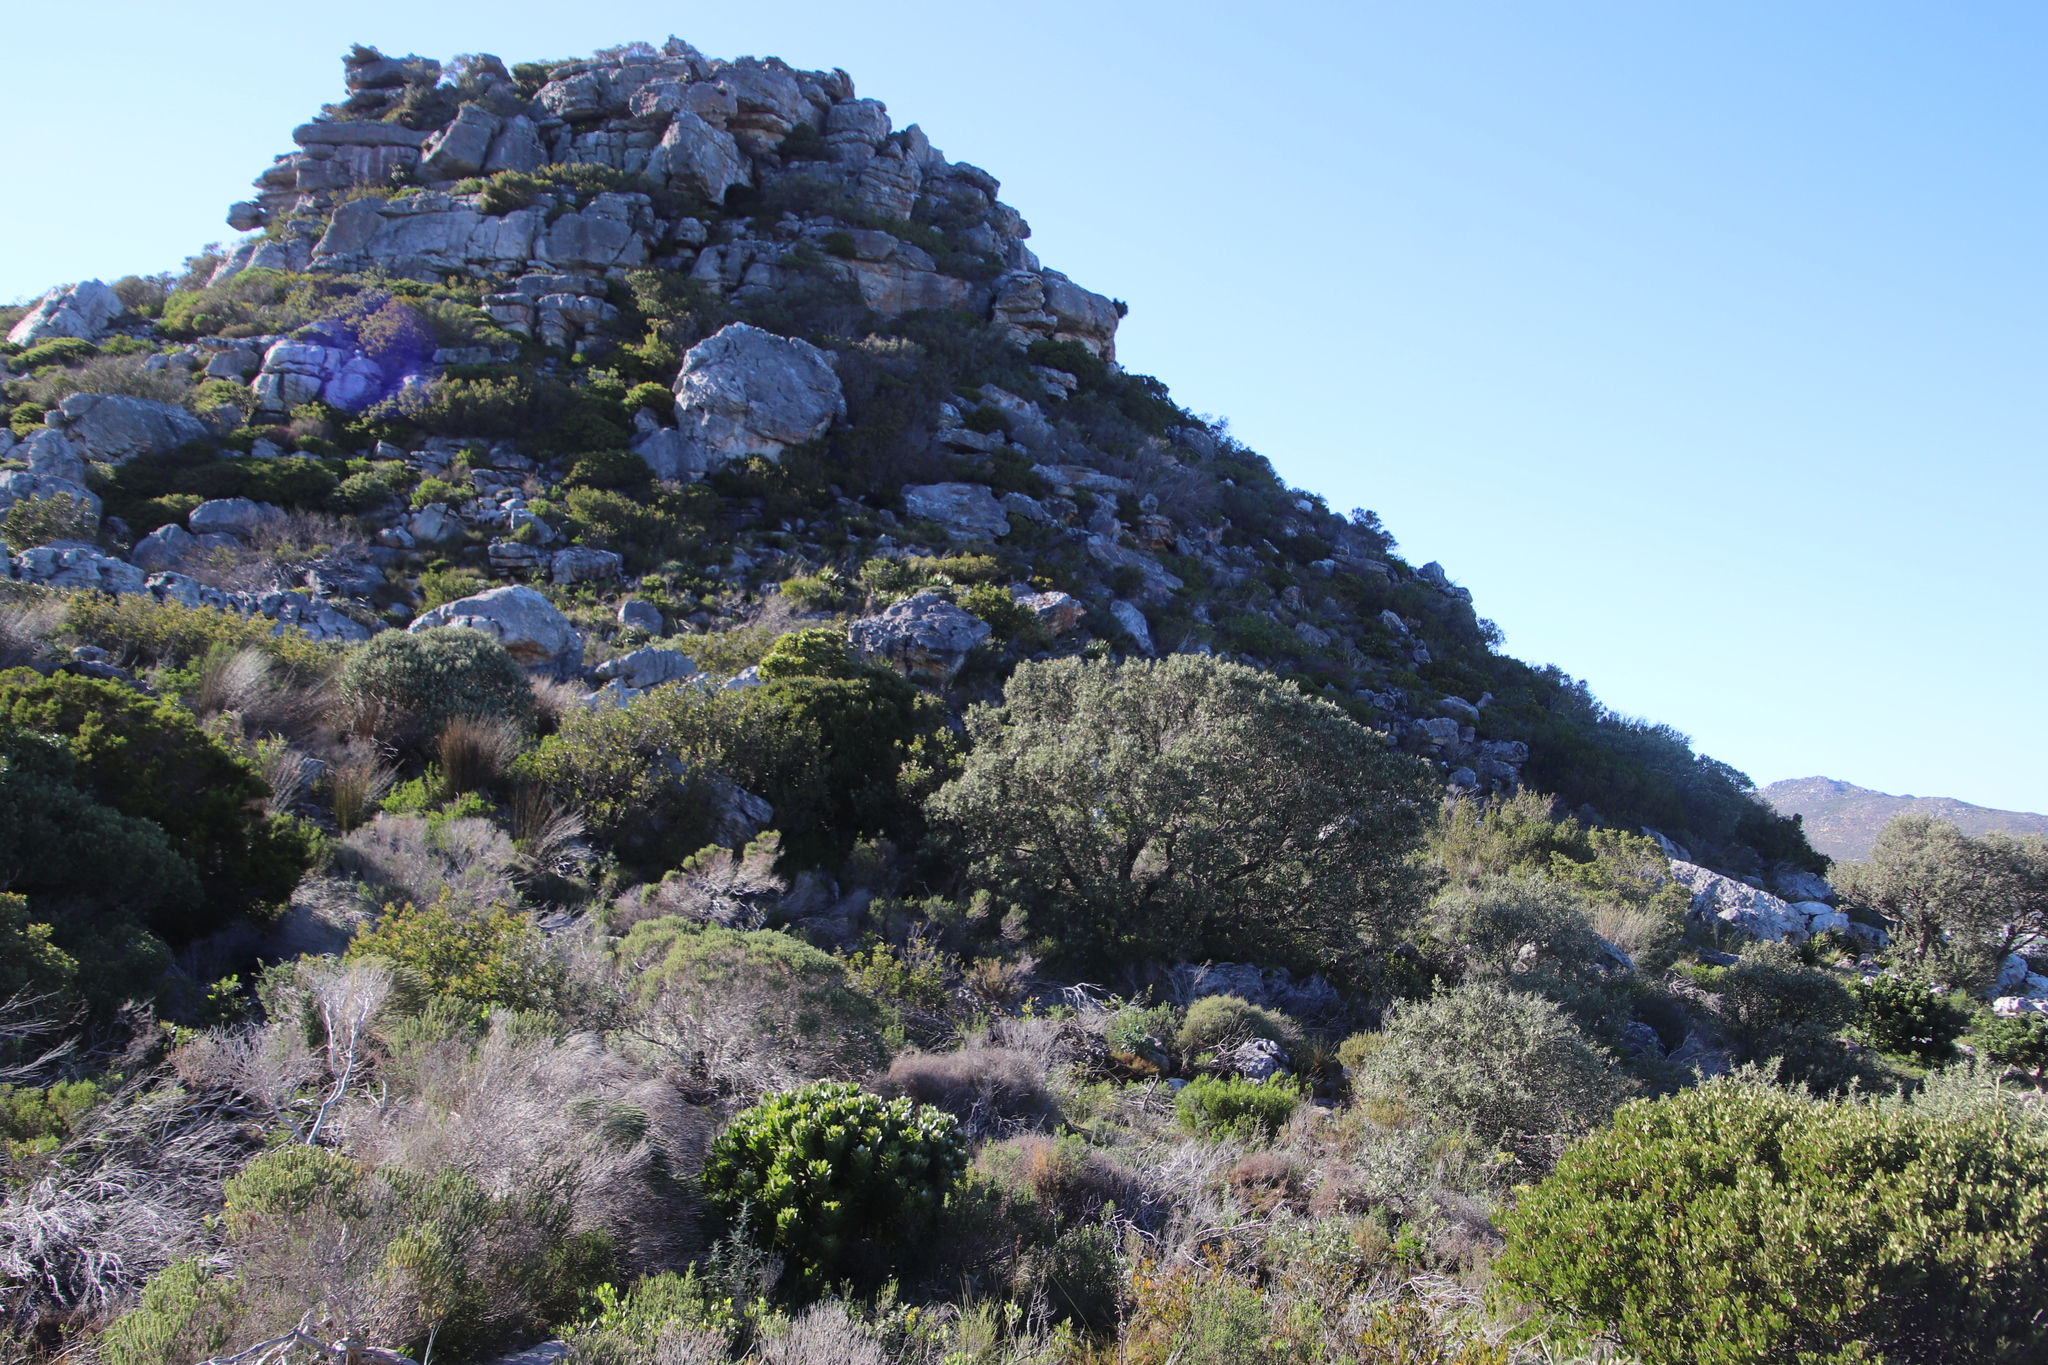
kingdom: Plantae
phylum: Tracheophyta
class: Magnoliopsida
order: Asterales
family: Asteraceae
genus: Tarchonanthus
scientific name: Tarchonanthus littoralis
